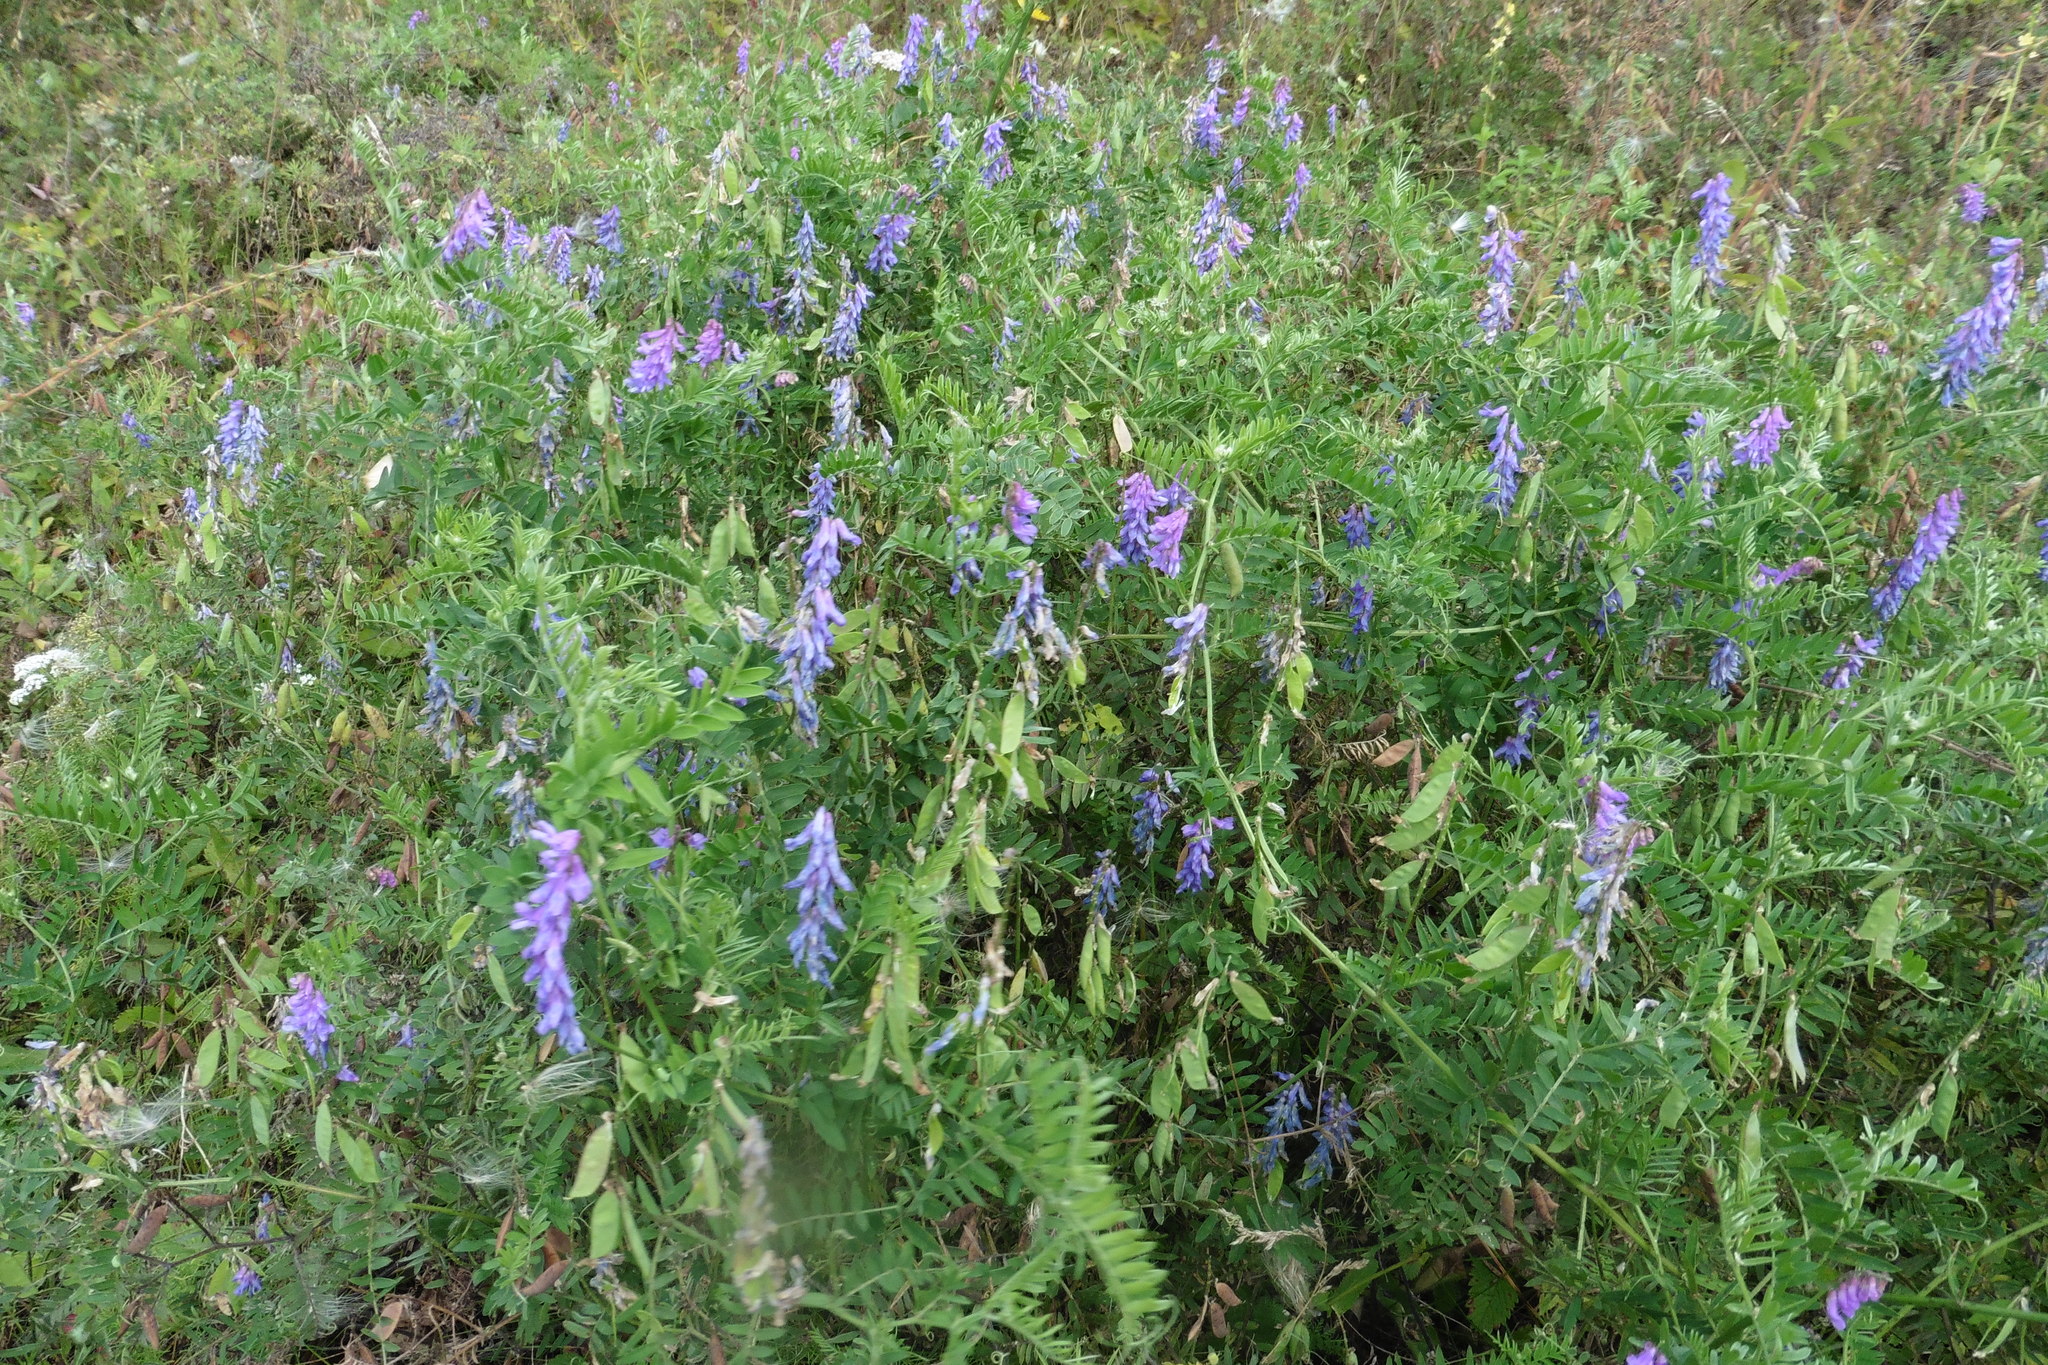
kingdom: Plantae
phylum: Tracheophyta
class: Magnoliopsida
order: Fabales
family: Fabaceae
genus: Vicia
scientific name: Vicia cracca
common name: Bird vetch
